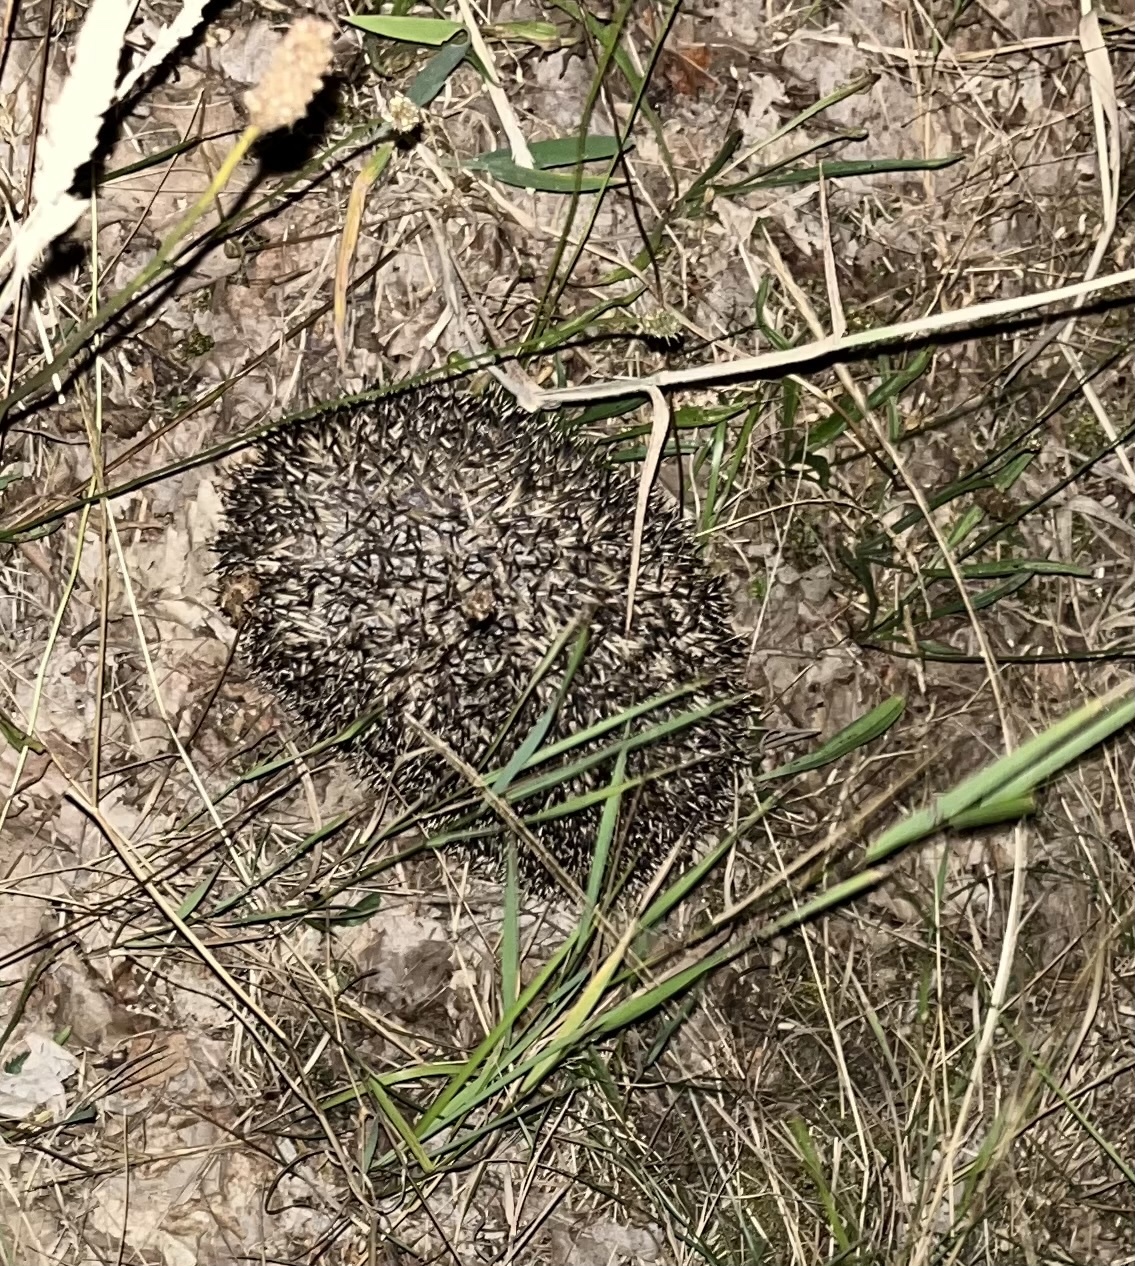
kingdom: Animalia
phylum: Chordata
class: Mammalia
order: Erinaceomorpha
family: Erinaceidae
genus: Erinaceus
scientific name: Erinaceus europaeus
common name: West european hedgehog
